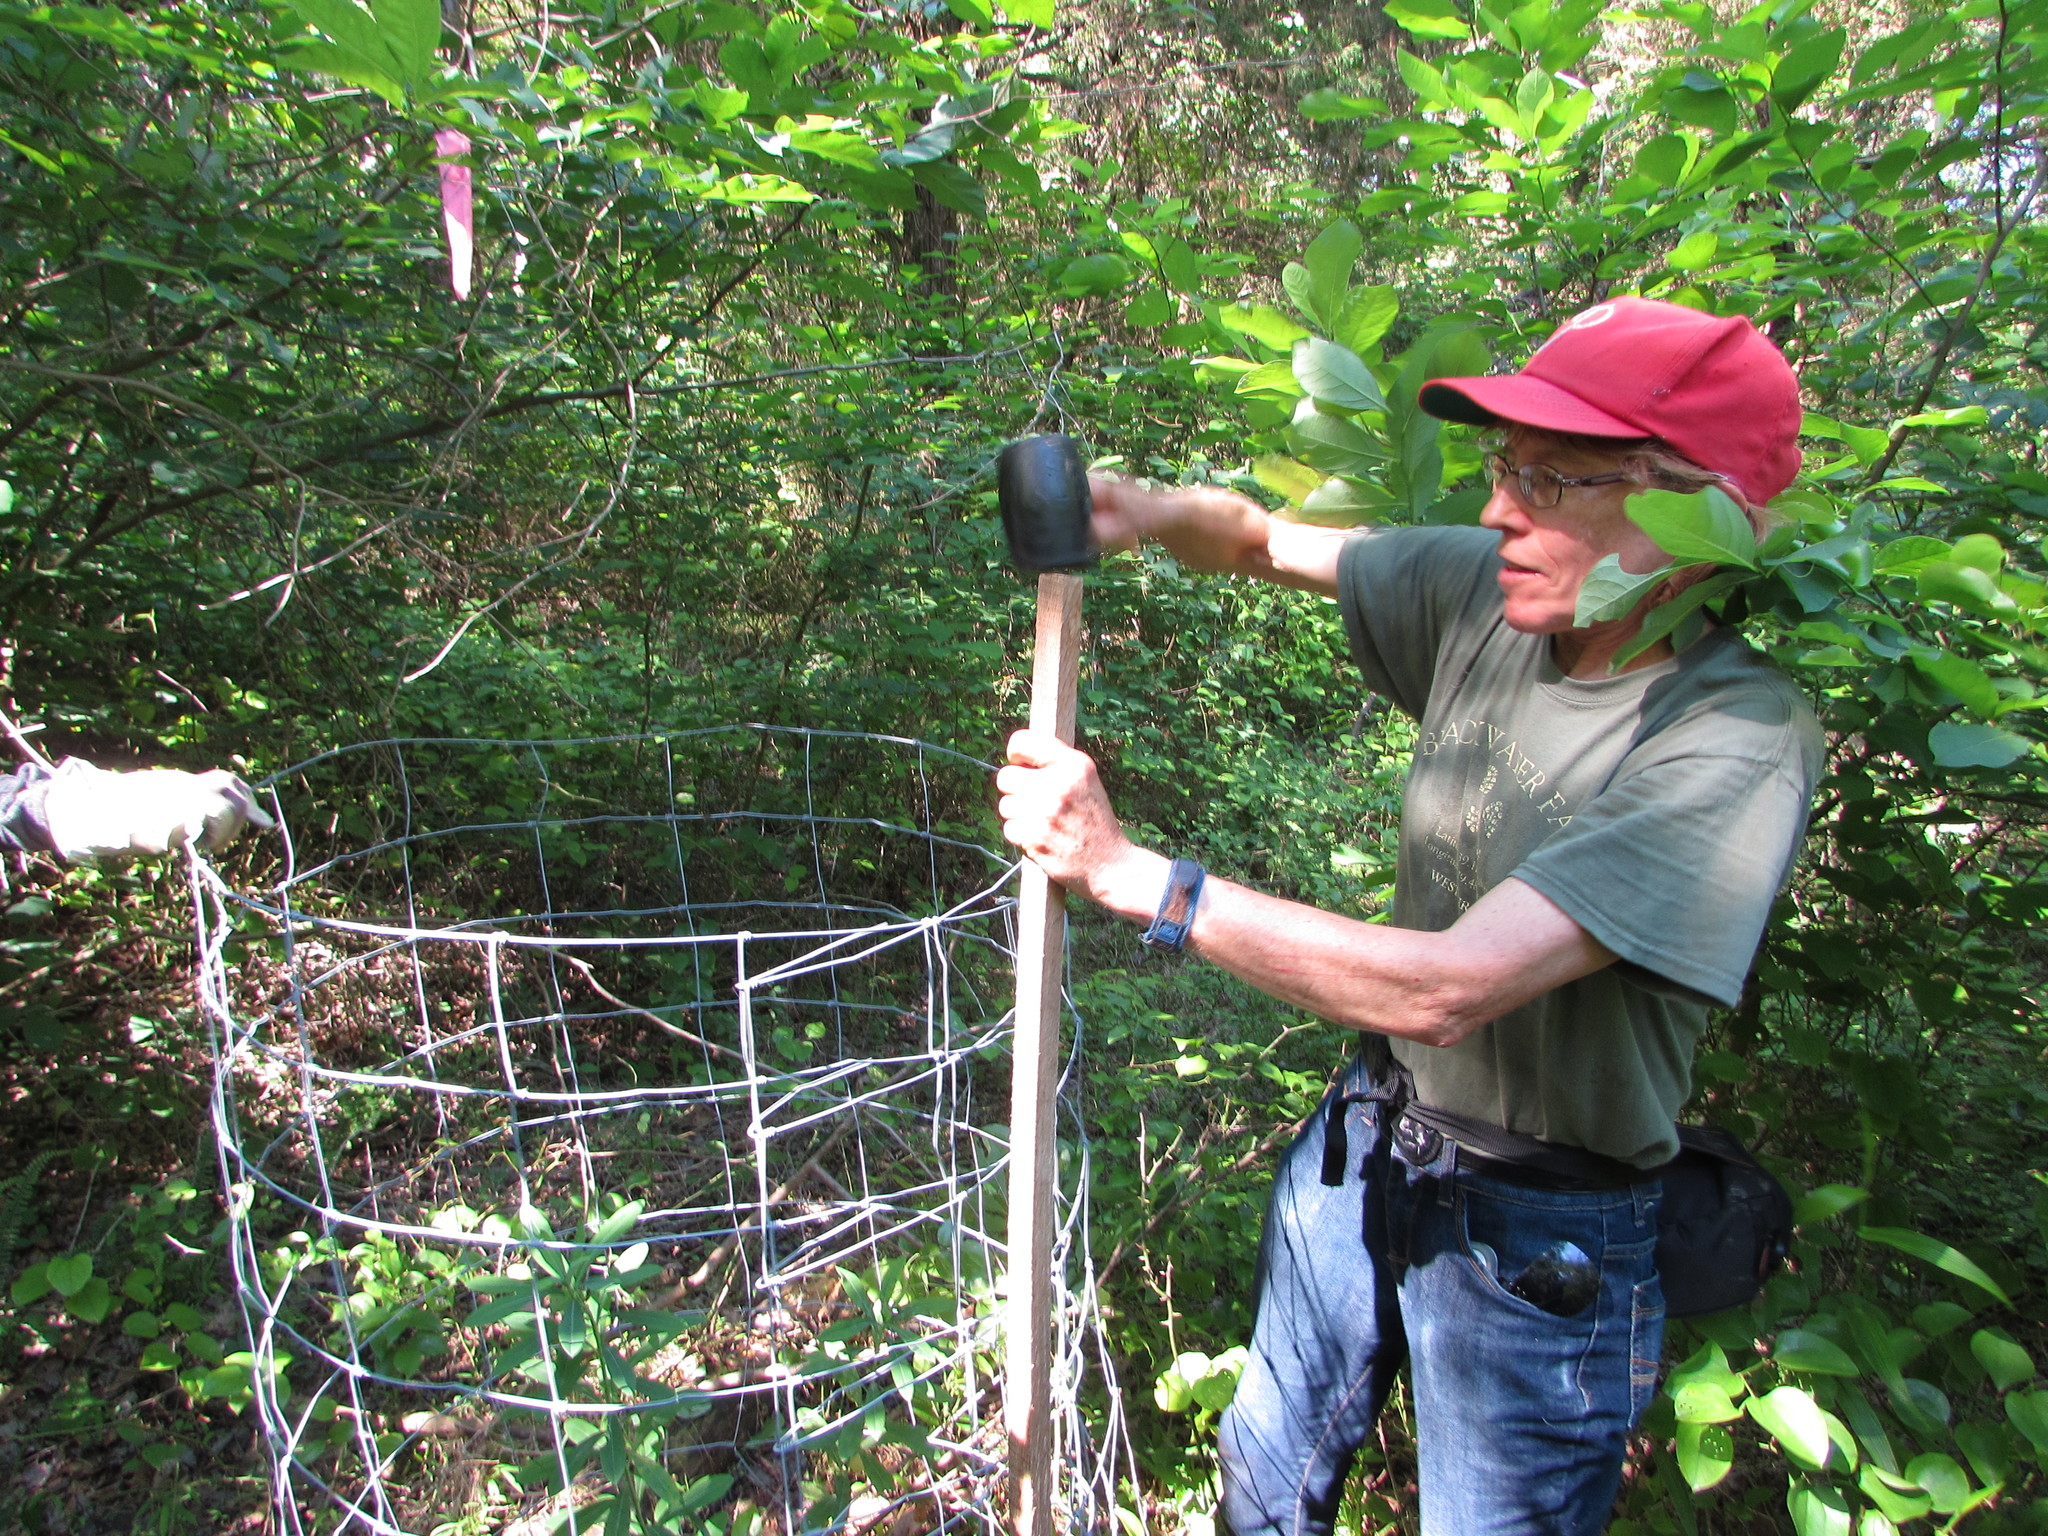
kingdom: Plantae
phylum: Tracheophyta
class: Magnoliopsida
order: Malpighiales
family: Euphorbiaceae
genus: Euphorbia
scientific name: Euphorbia purpurea
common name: Darlington's spurge
